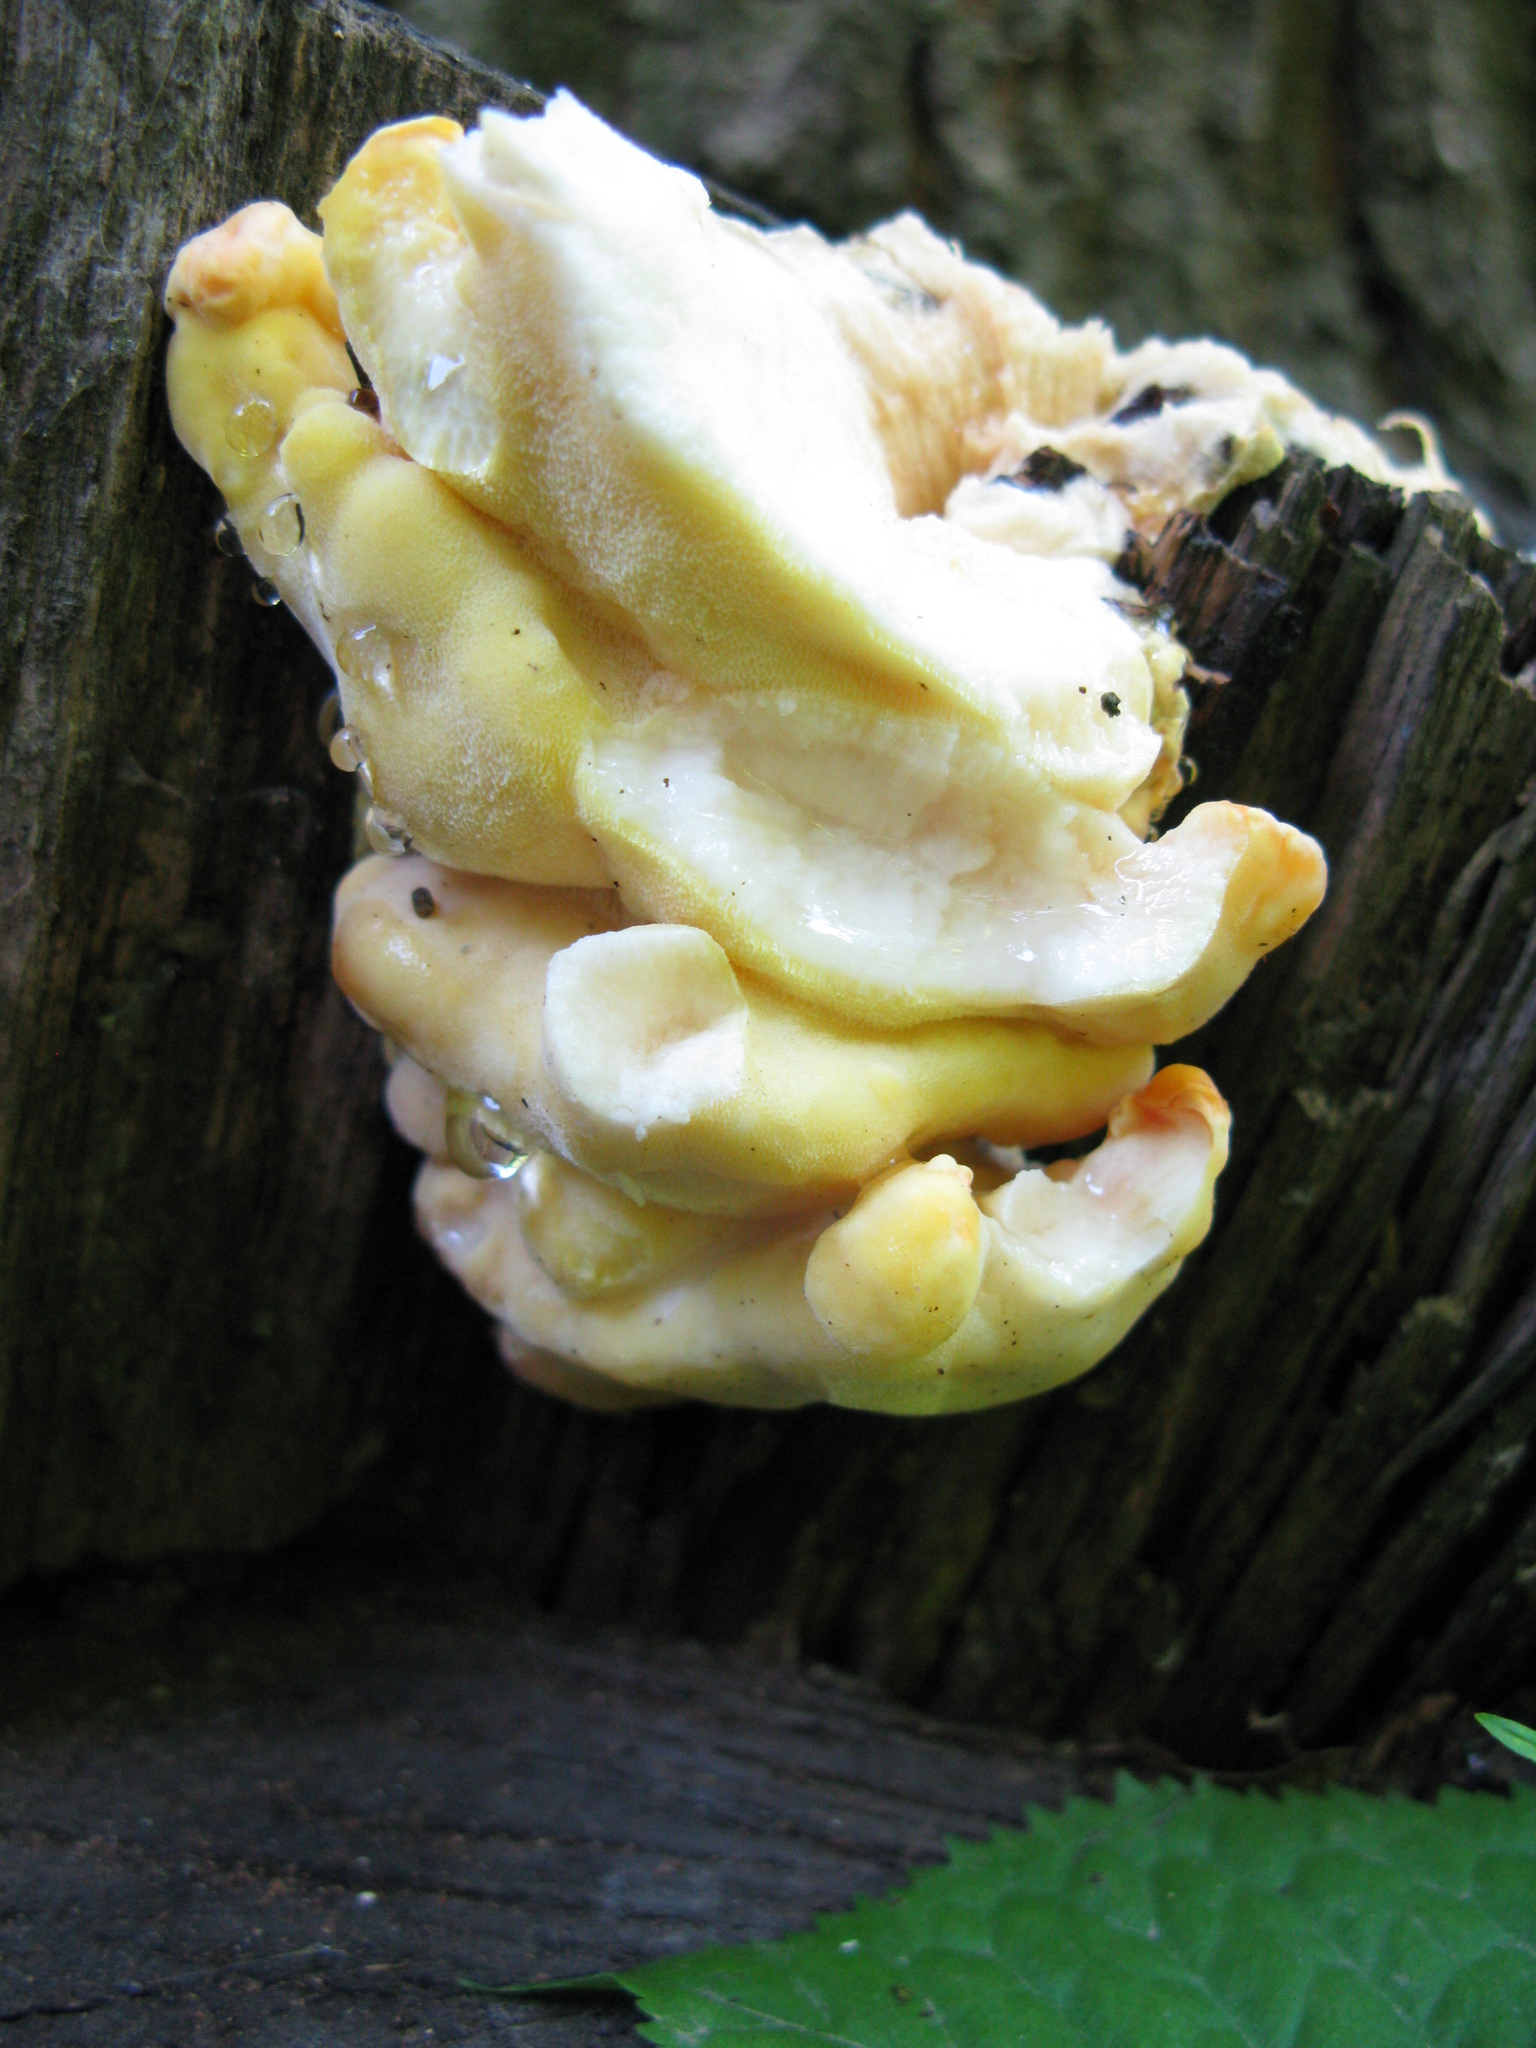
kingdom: Fungi
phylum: Basidiomycota
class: Agaricomycetes
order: Polyporales
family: Laetiporaceae
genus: Laetiporus
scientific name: Laetiporus sulphureus
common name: Chicken of the woods
